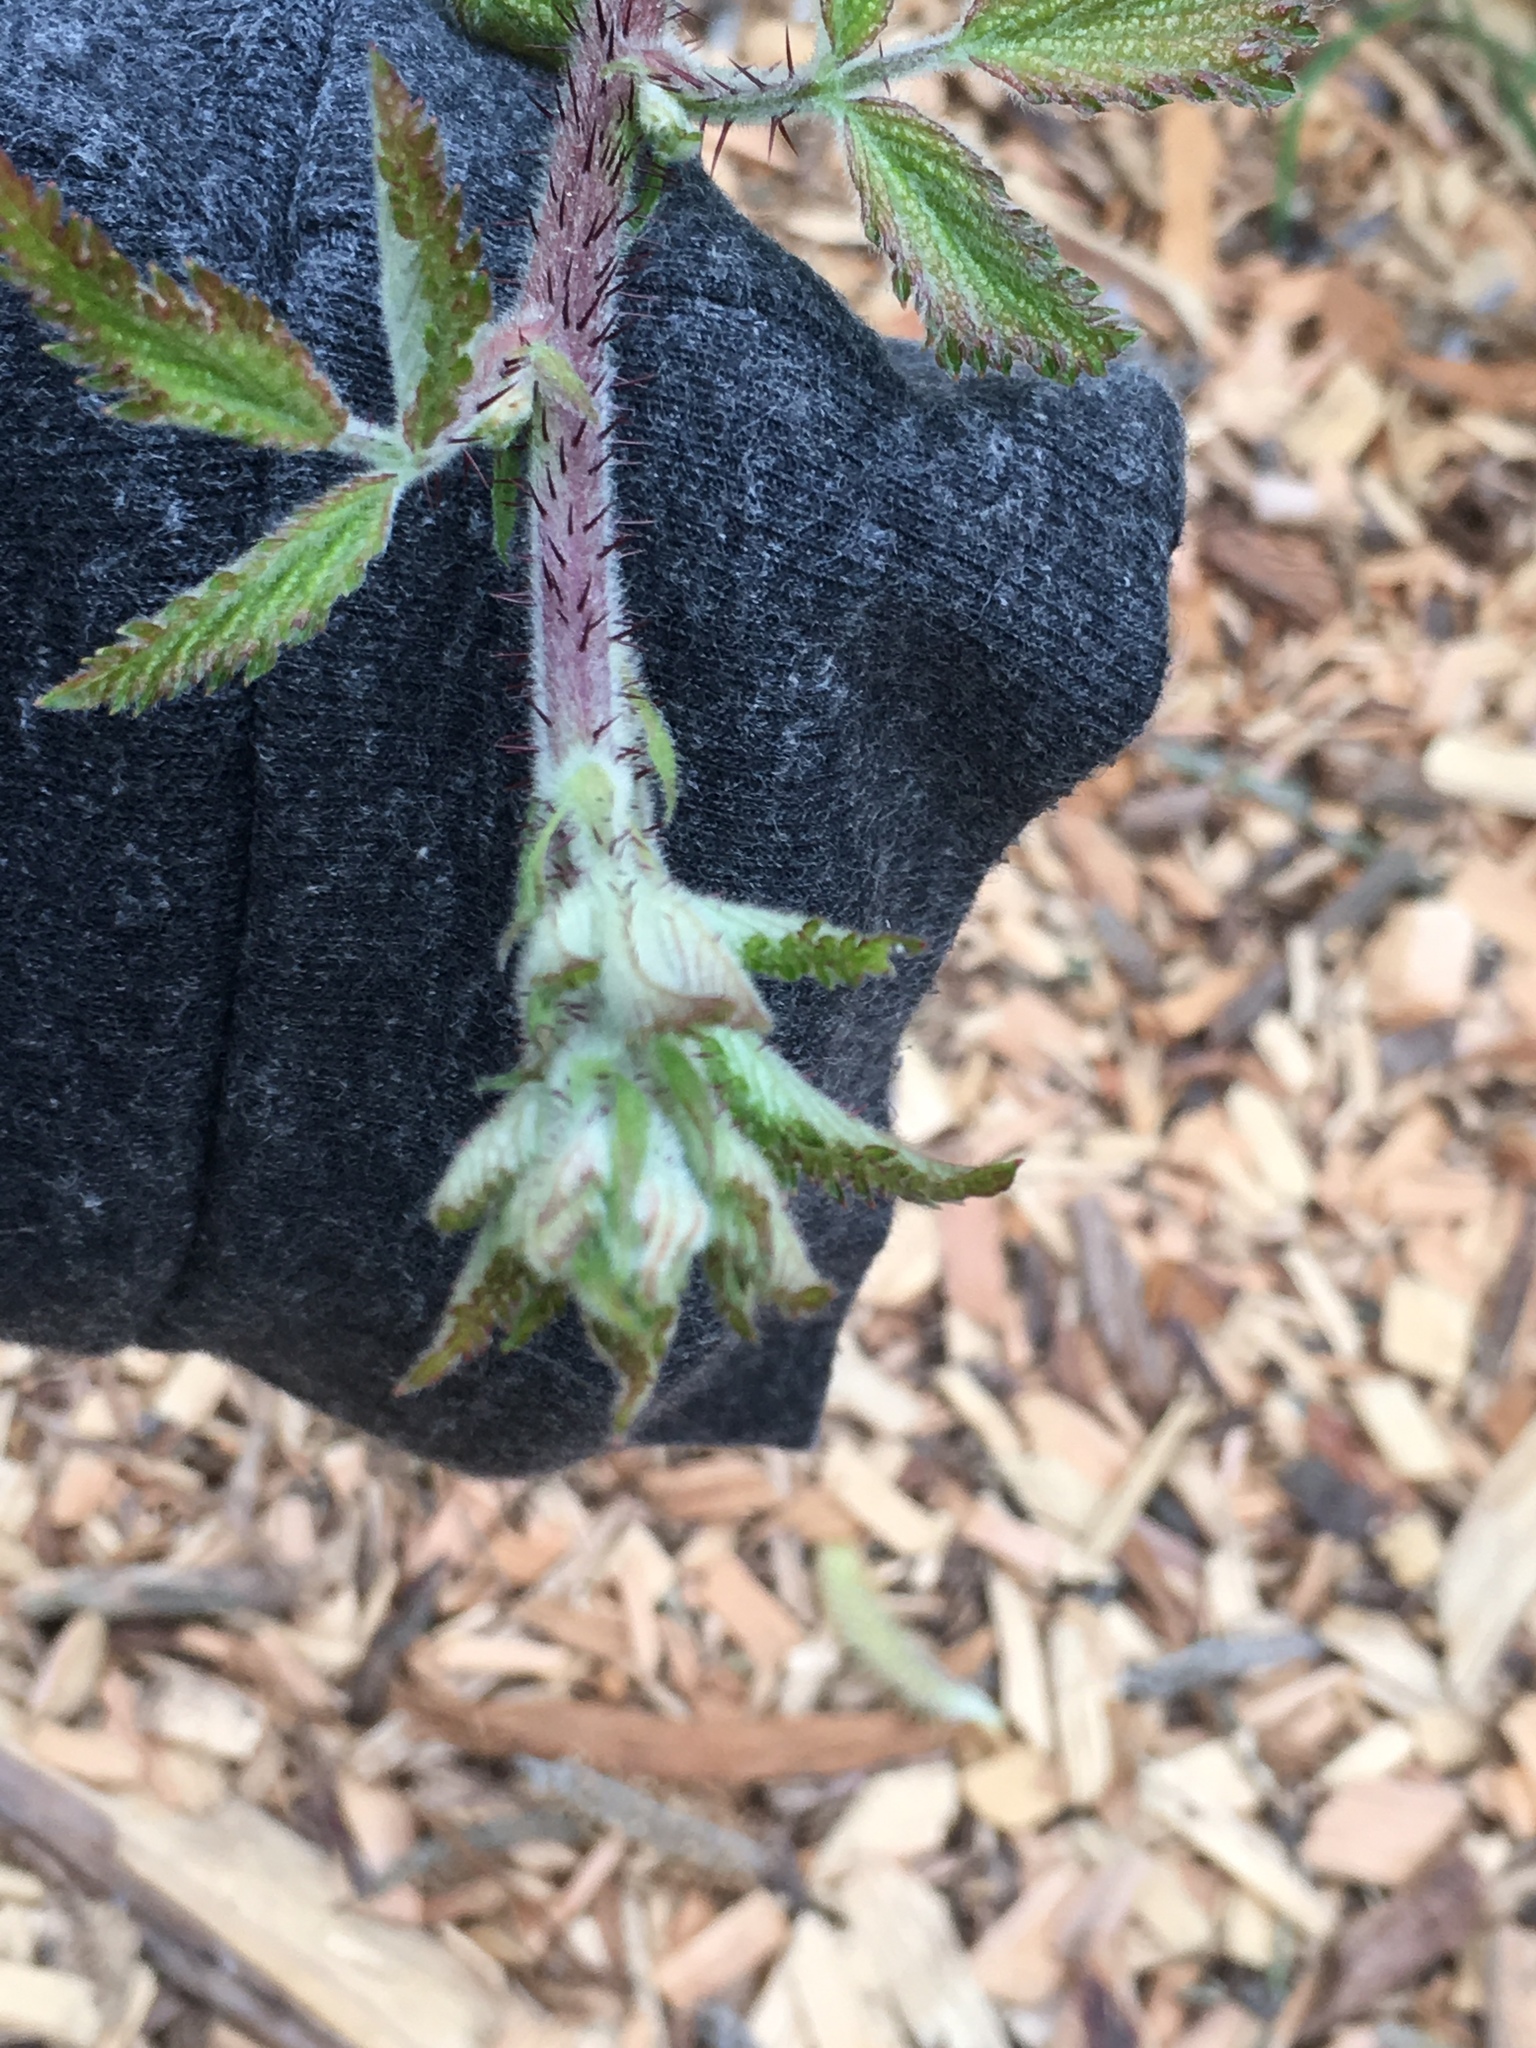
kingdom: Plantae
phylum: Tracheophyta
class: Magnoliopsida
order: Rosales
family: Rosaceae
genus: Rubus
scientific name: Rubus ursinus
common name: Pacific blackberry
